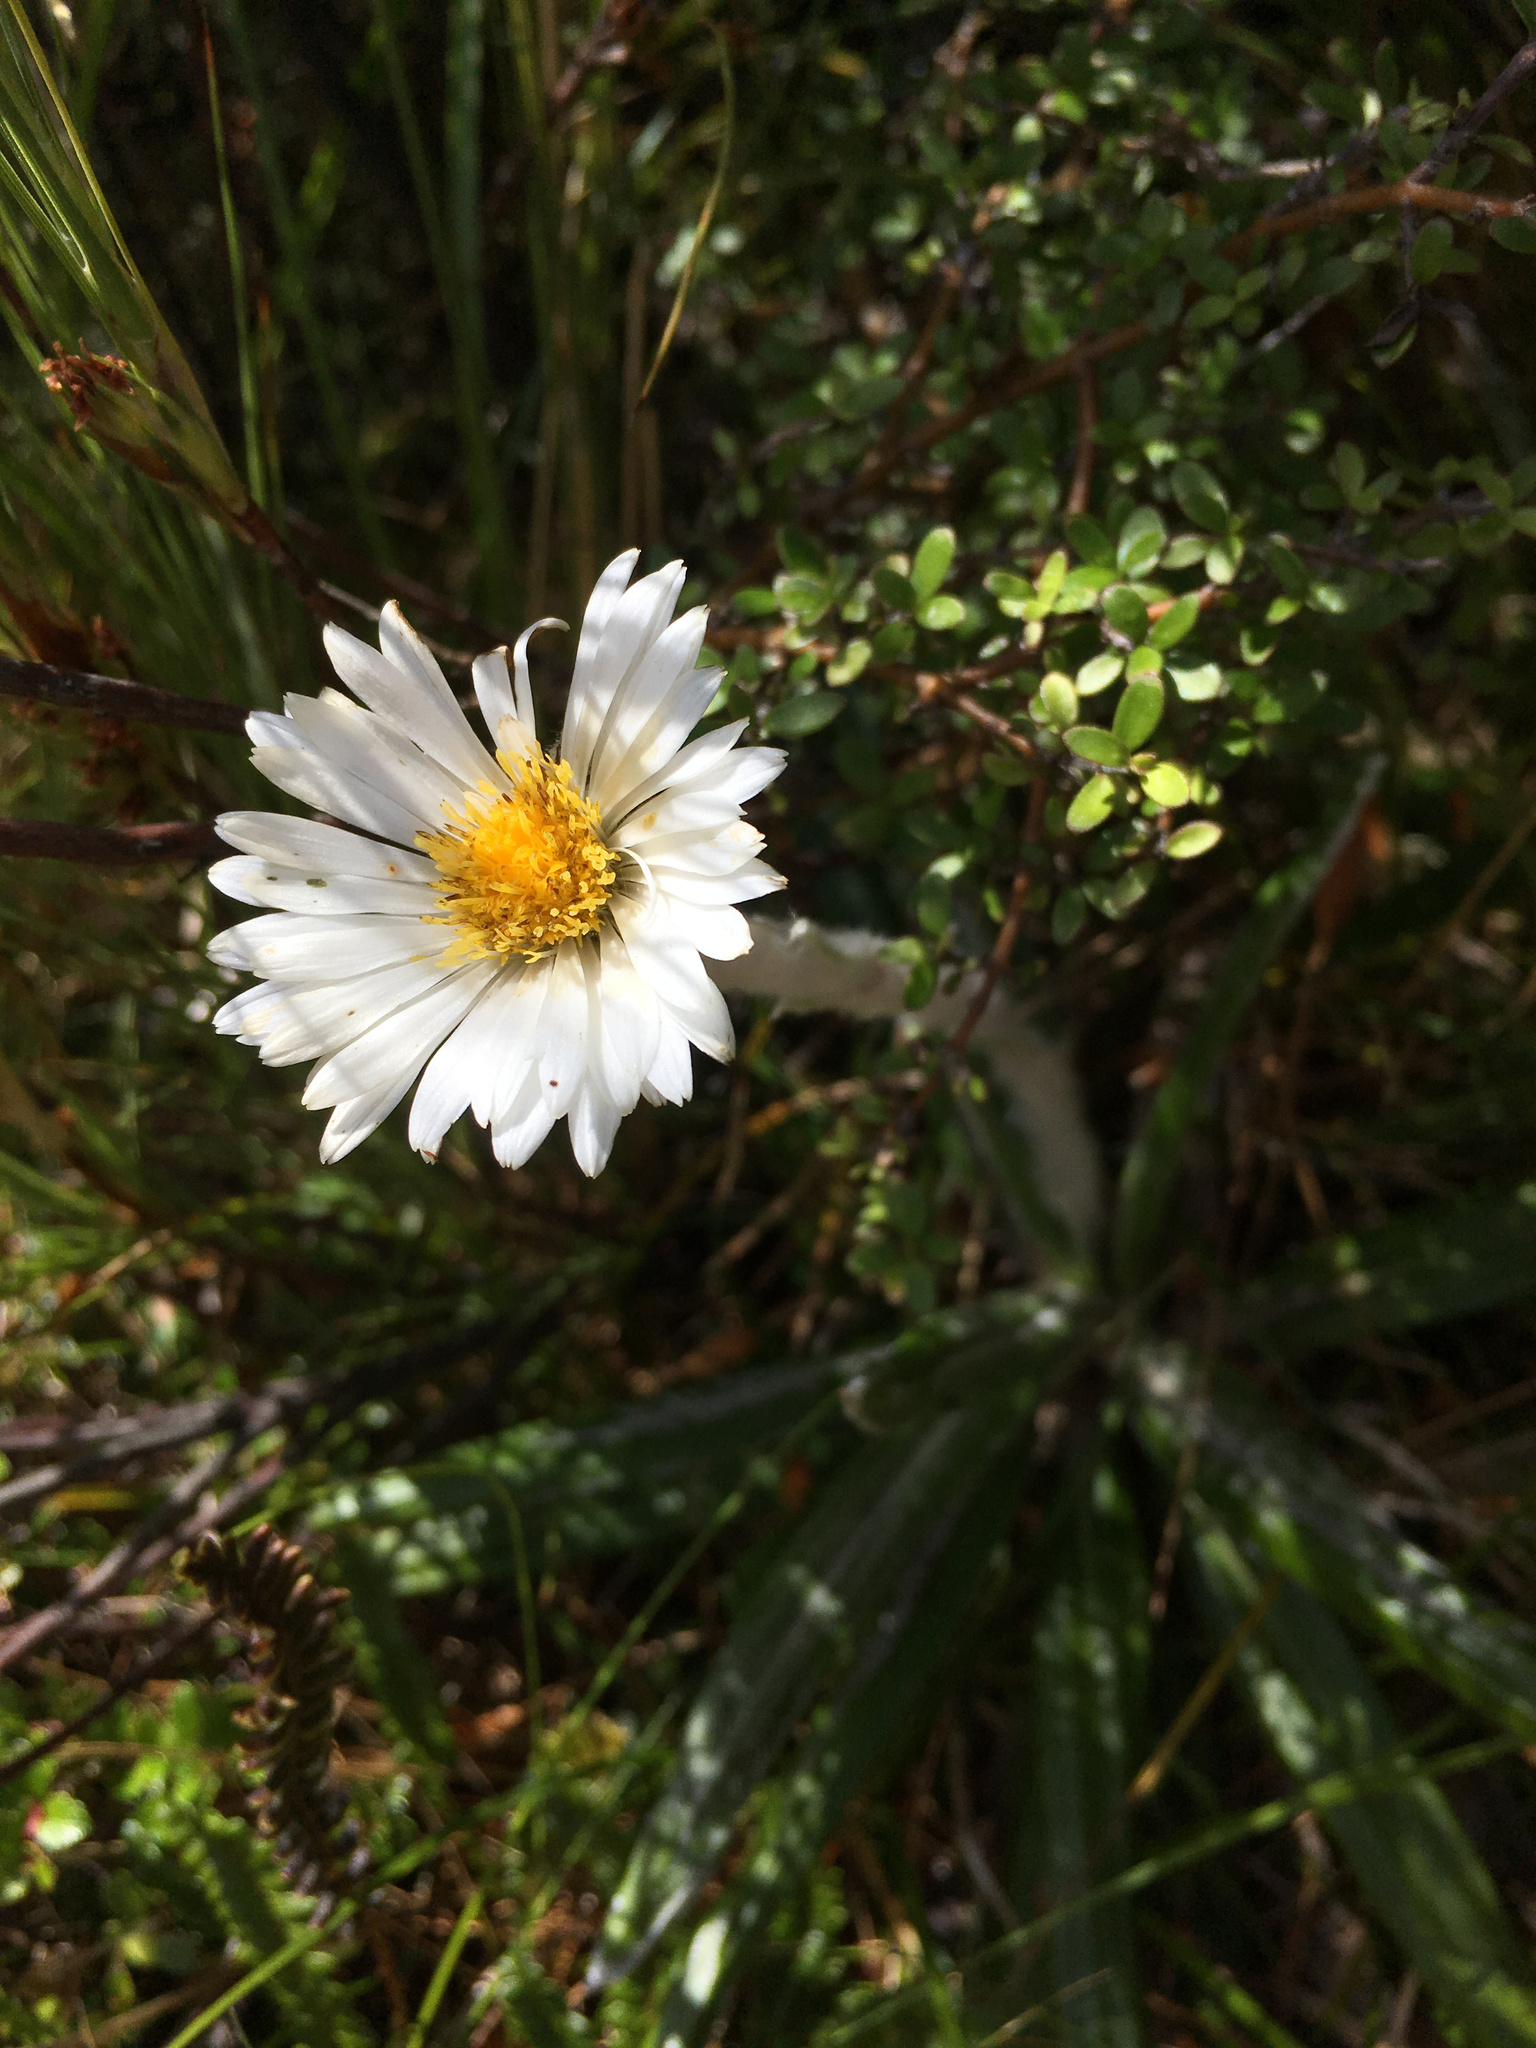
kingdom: Plantae
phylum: Tracheophyta
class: Magnoliopsida
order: Asterales
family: Asteraceae
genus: Celmisia
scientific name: Celmisia spectabilis
